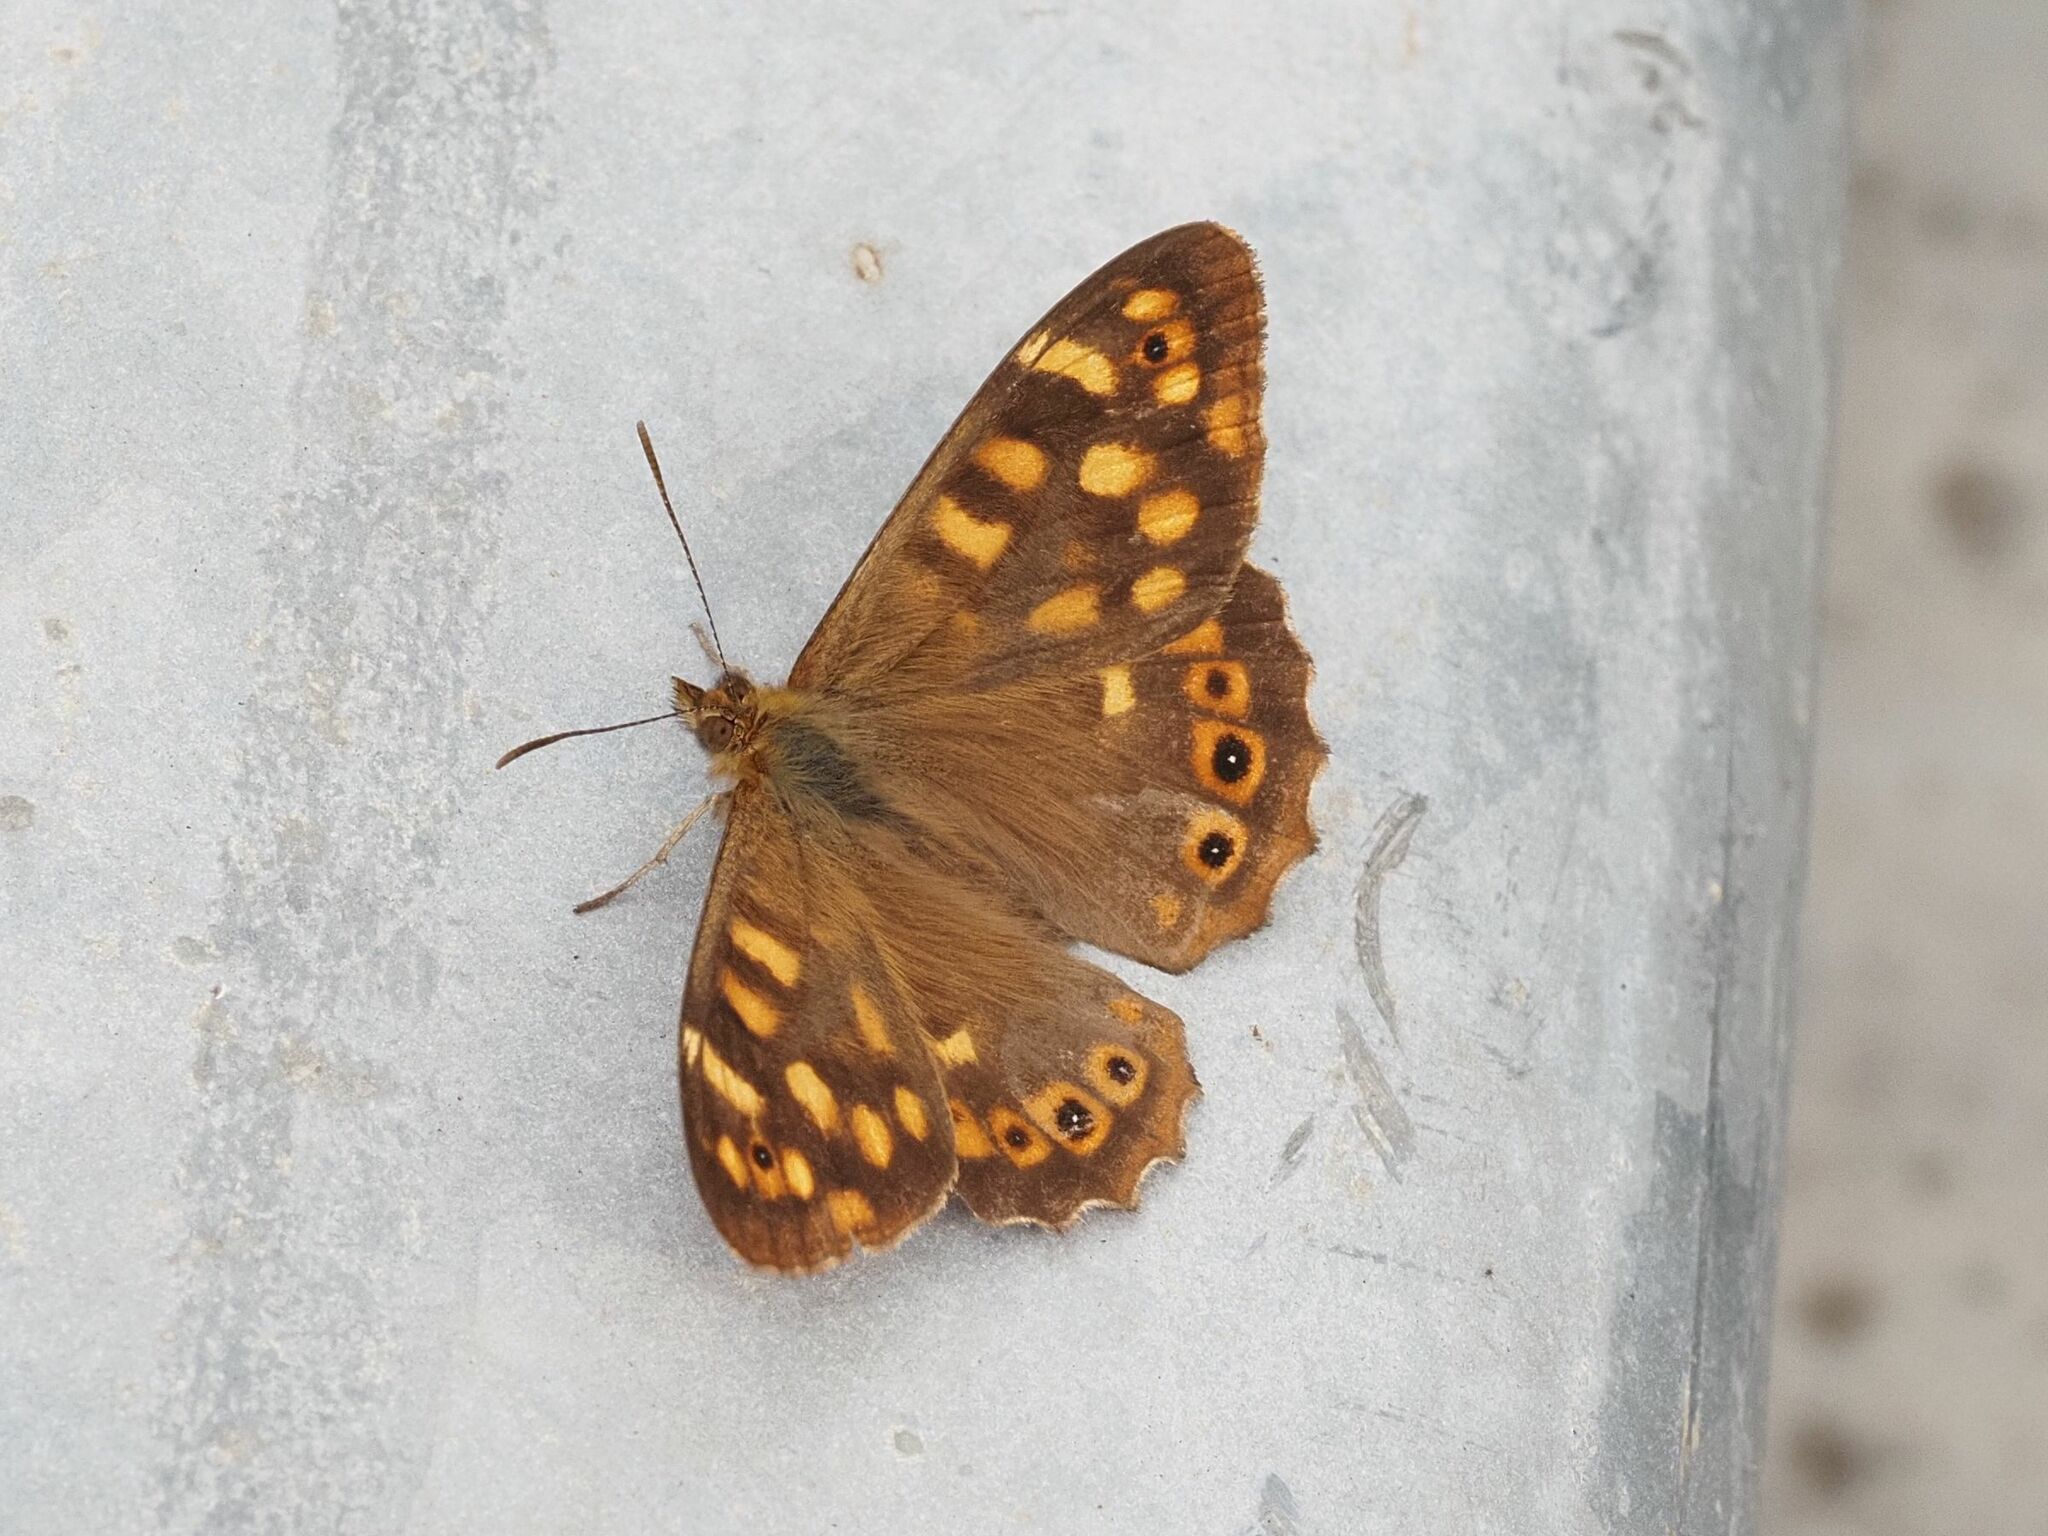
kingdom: Animalia
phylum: Arthropoda
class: Insecta
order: Lepidoptera
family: Nymphalidae
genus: Pararge
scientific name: Pararge aegeria
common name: Speckled wood
